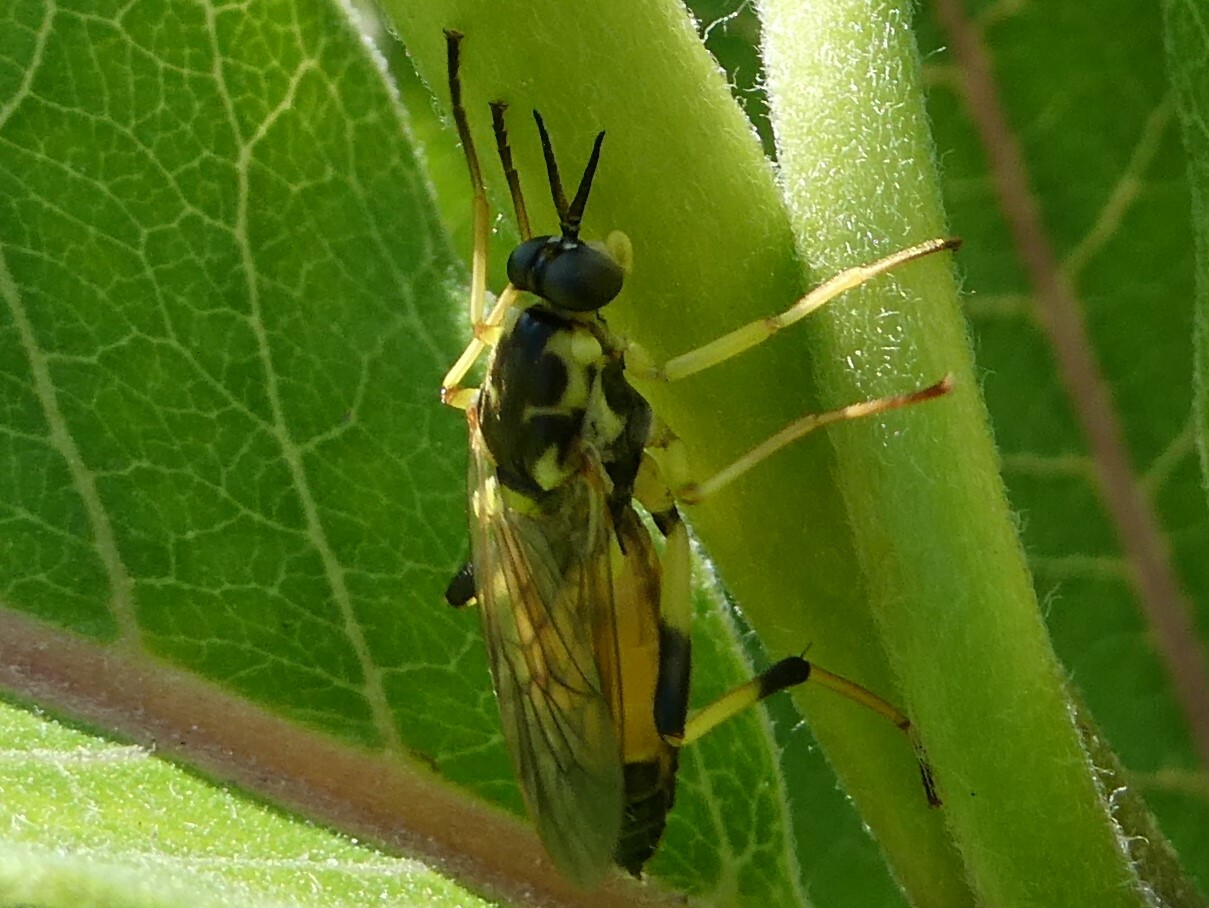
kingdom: Animalia
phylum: Arthropoda
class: Insecta
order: Diptera
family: Xylomyidae
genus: Xylomya
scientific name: Xylomya terminalis
